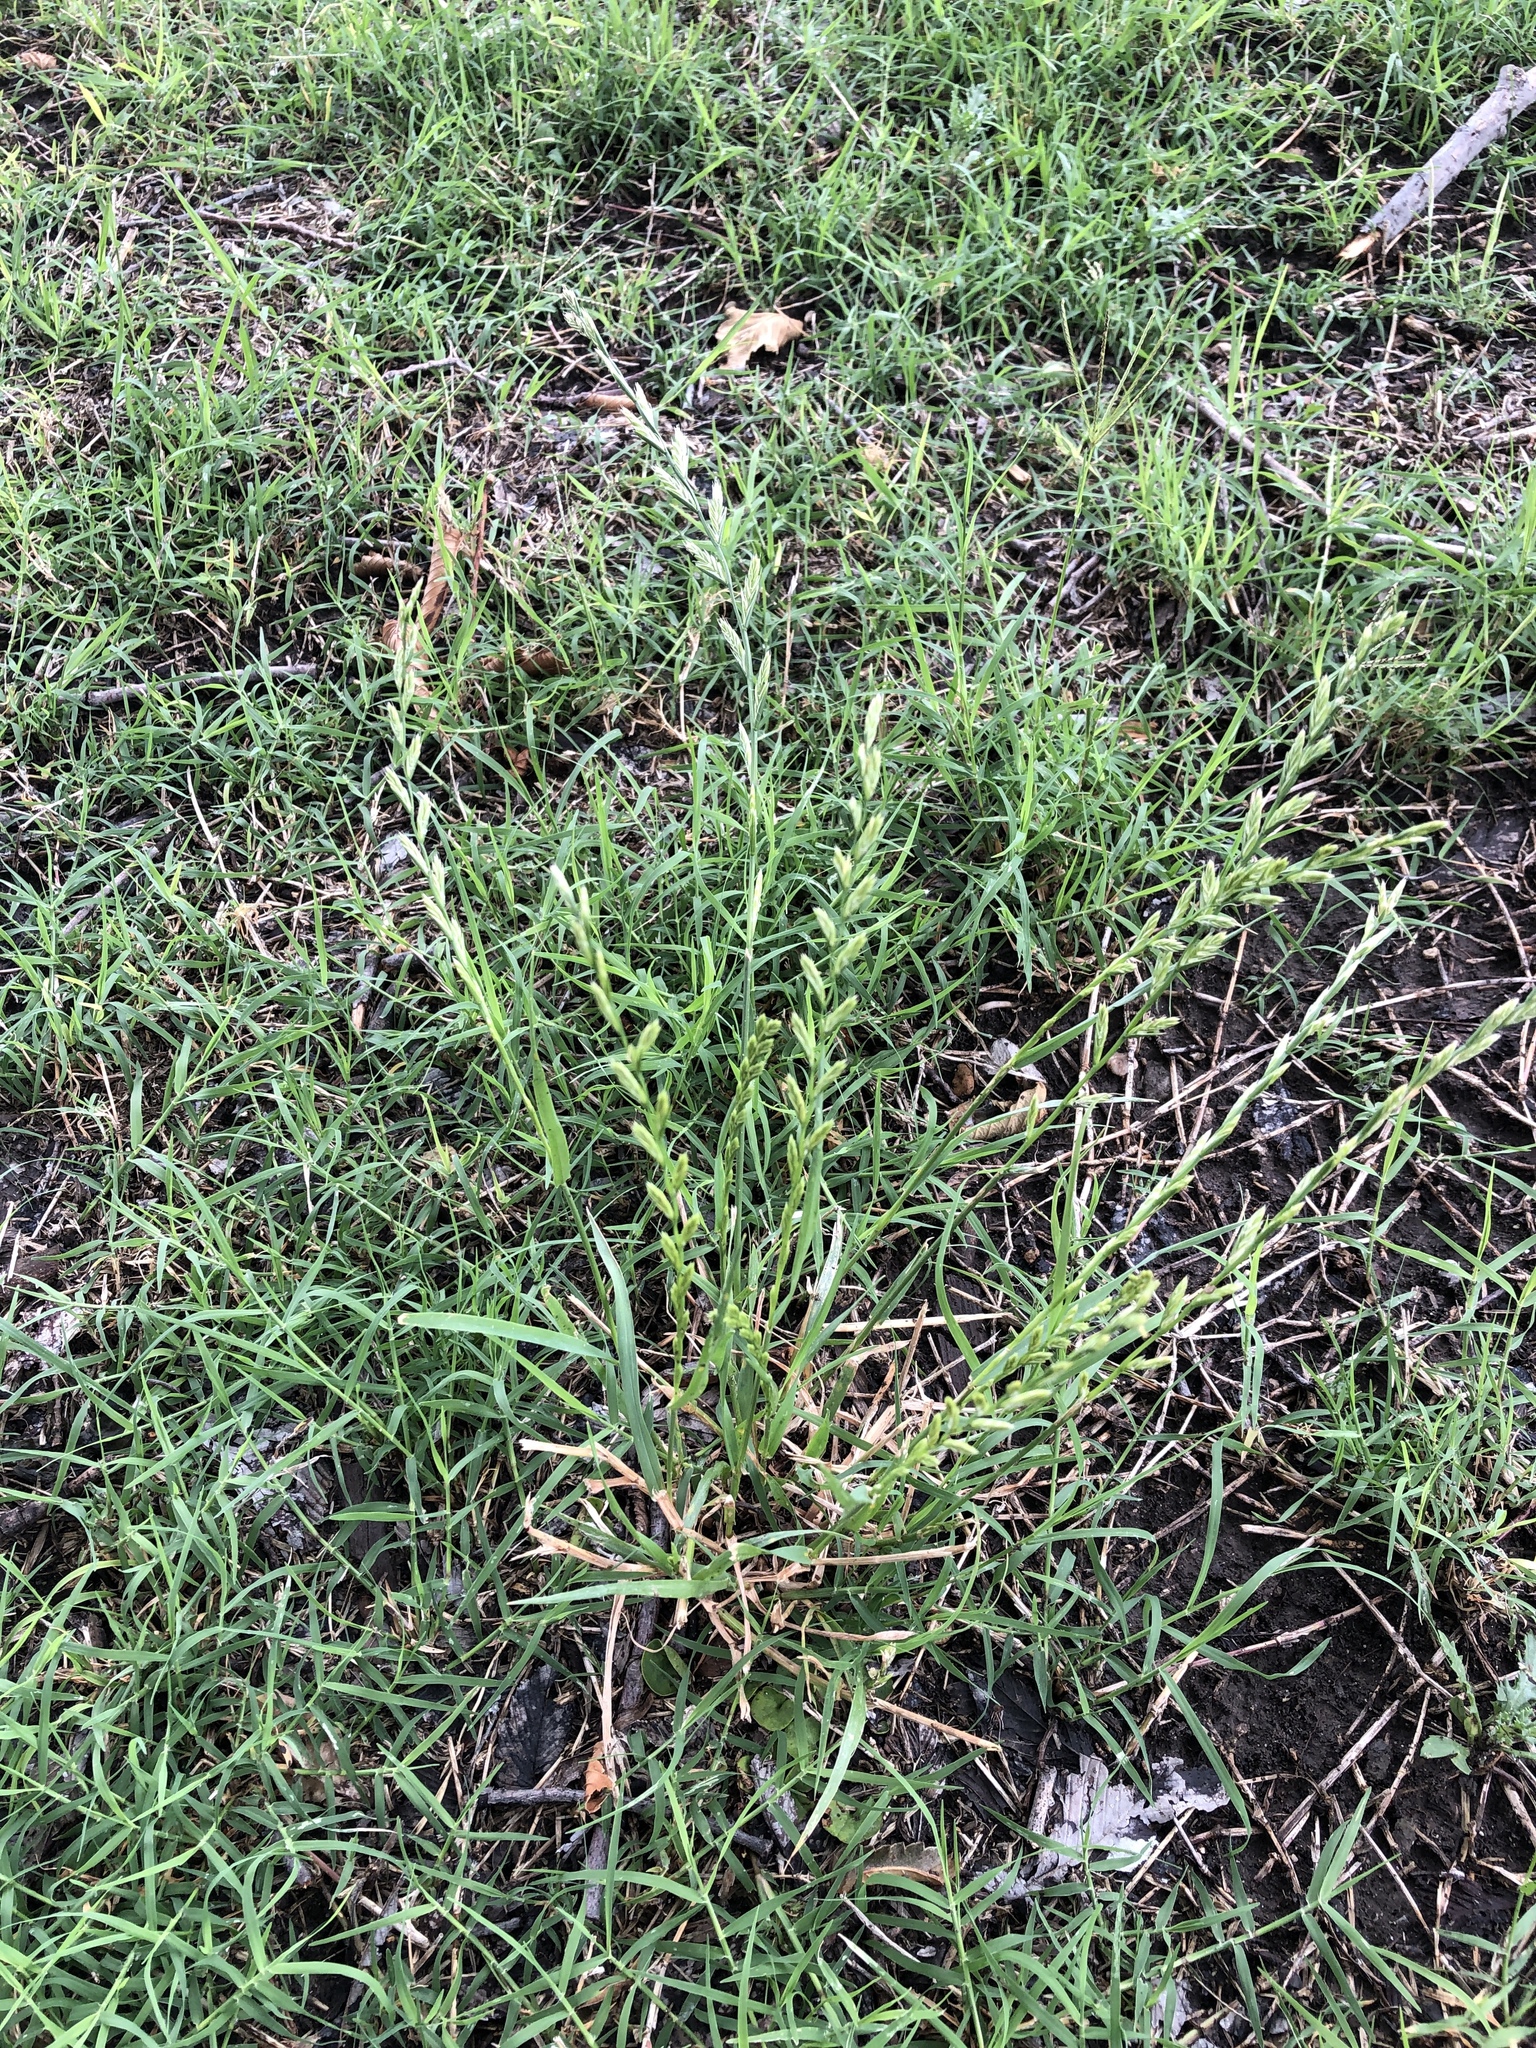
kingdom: Plantae
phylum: Tracheophyta
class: Liliopsida
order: Poales
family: Poaceae
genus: Lolium
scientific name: Lolium perenne
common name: Perennial ryegrass
